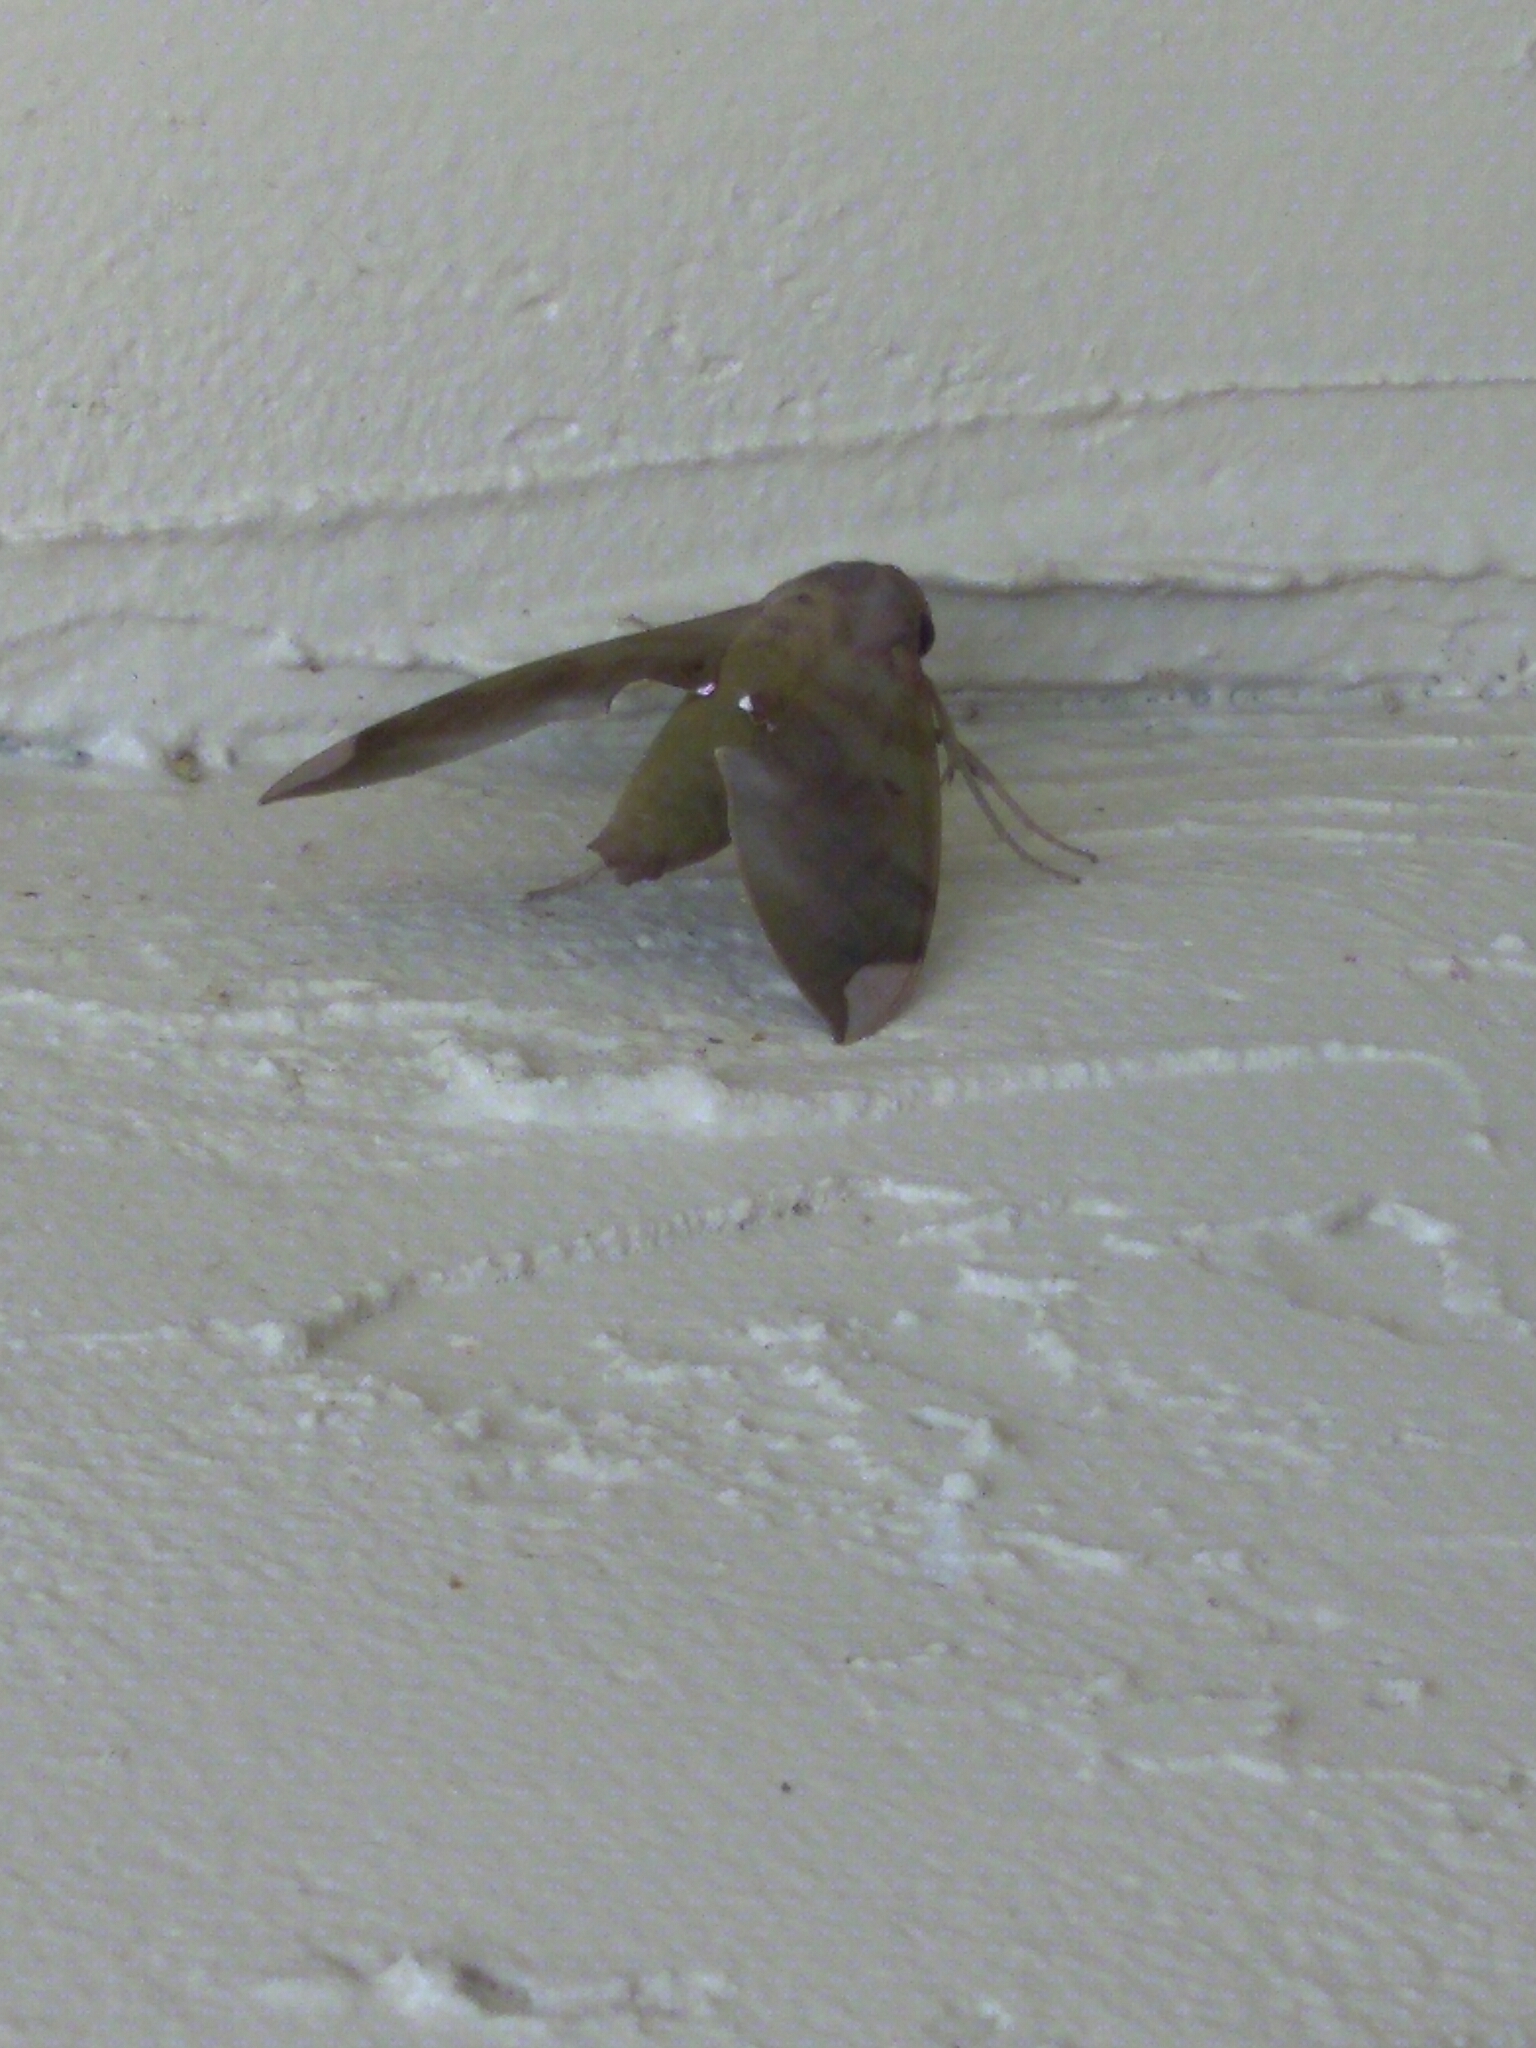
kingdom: Animalia
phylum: Arthropoda
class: Insecta
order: Lepidoptera
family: Sphingidae
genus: Pachylia
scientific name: Pachylia ficus
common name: Fig sphinx
